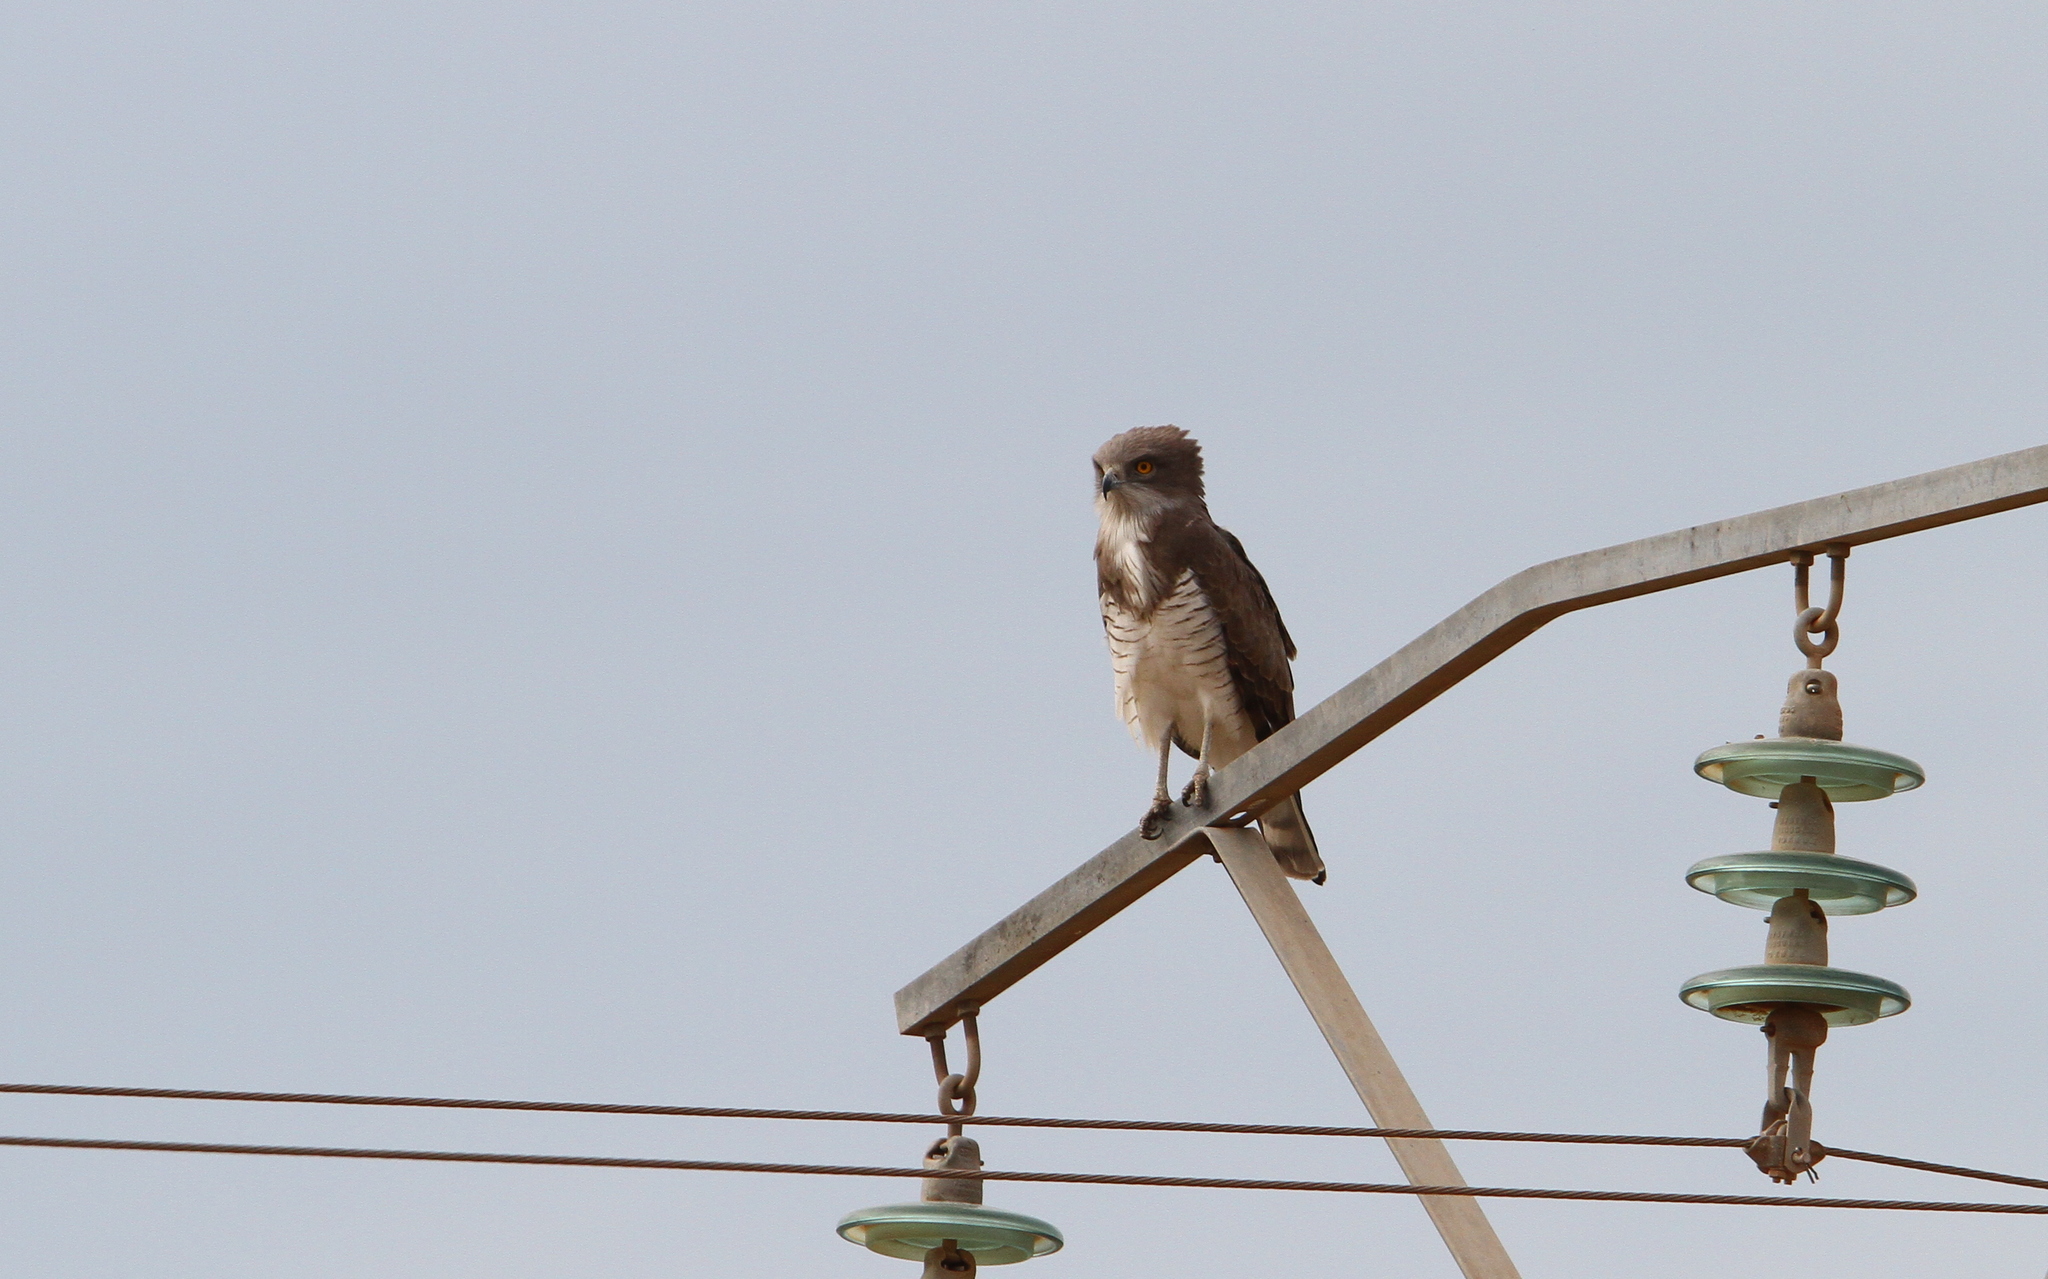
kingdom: Animalia
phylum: Chordata
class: Aves
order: Accipitriformes
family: Accipitridae
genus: Circaetus
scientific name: Circaetus beaudouini
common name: Beaudouin's snake eagle
